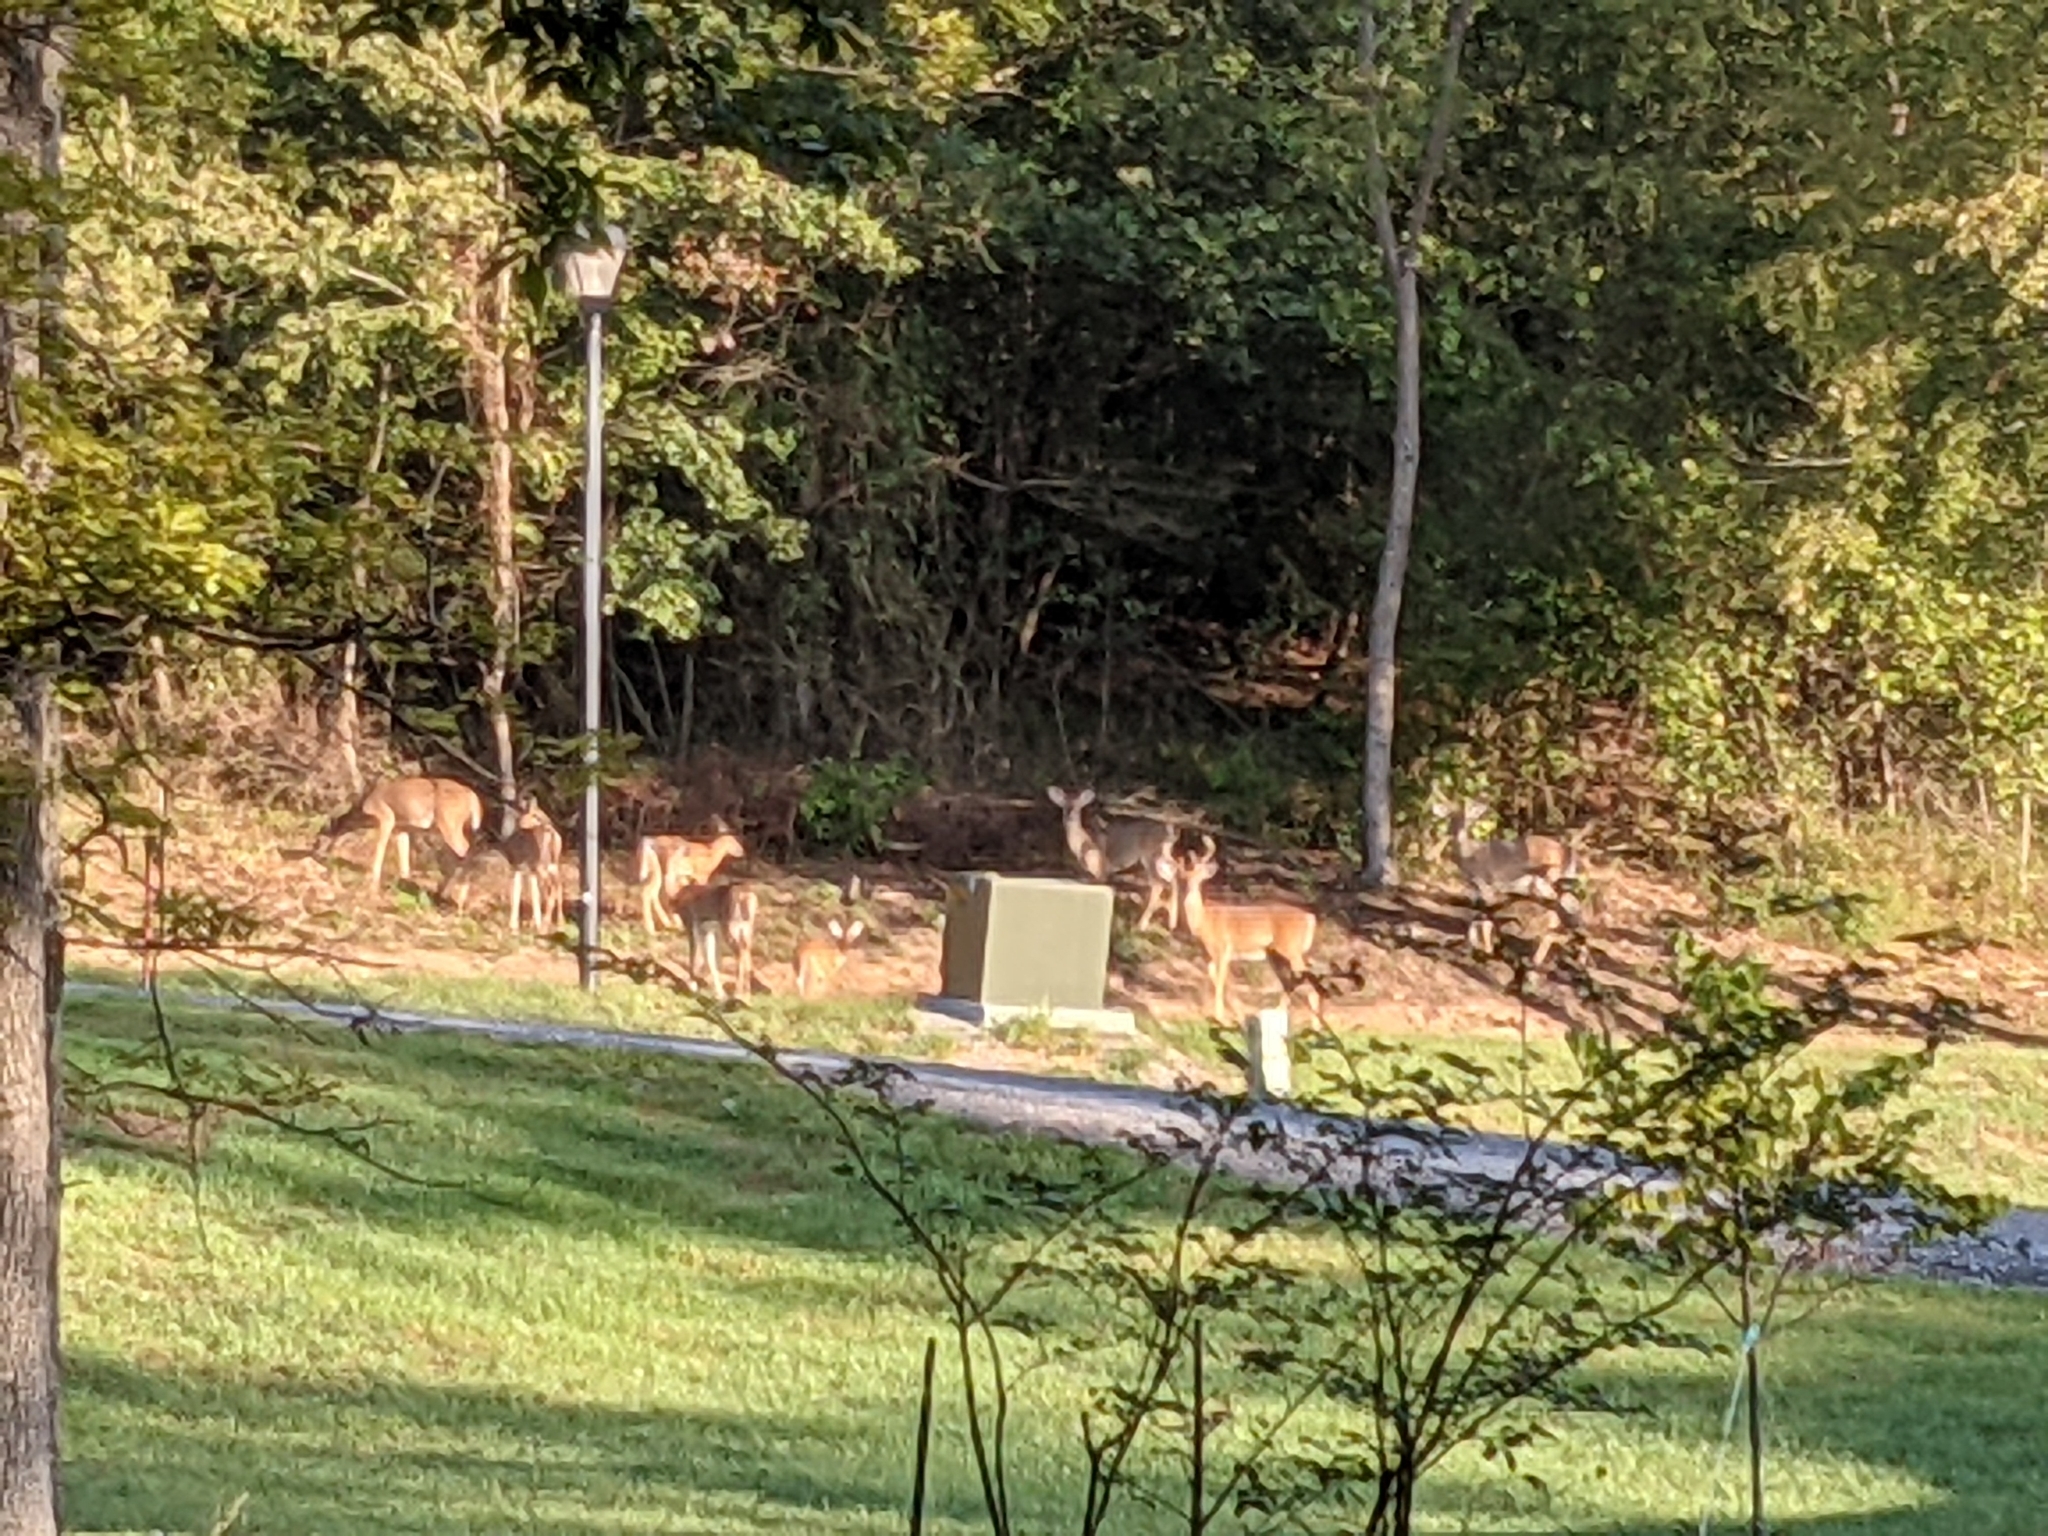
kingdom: Animalia
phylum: Chordata
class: Mammalia
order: Artiodactyla
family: Cervidae
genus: Odocoileus
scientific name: Odocoileus virginianus
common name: White-tailed deer
